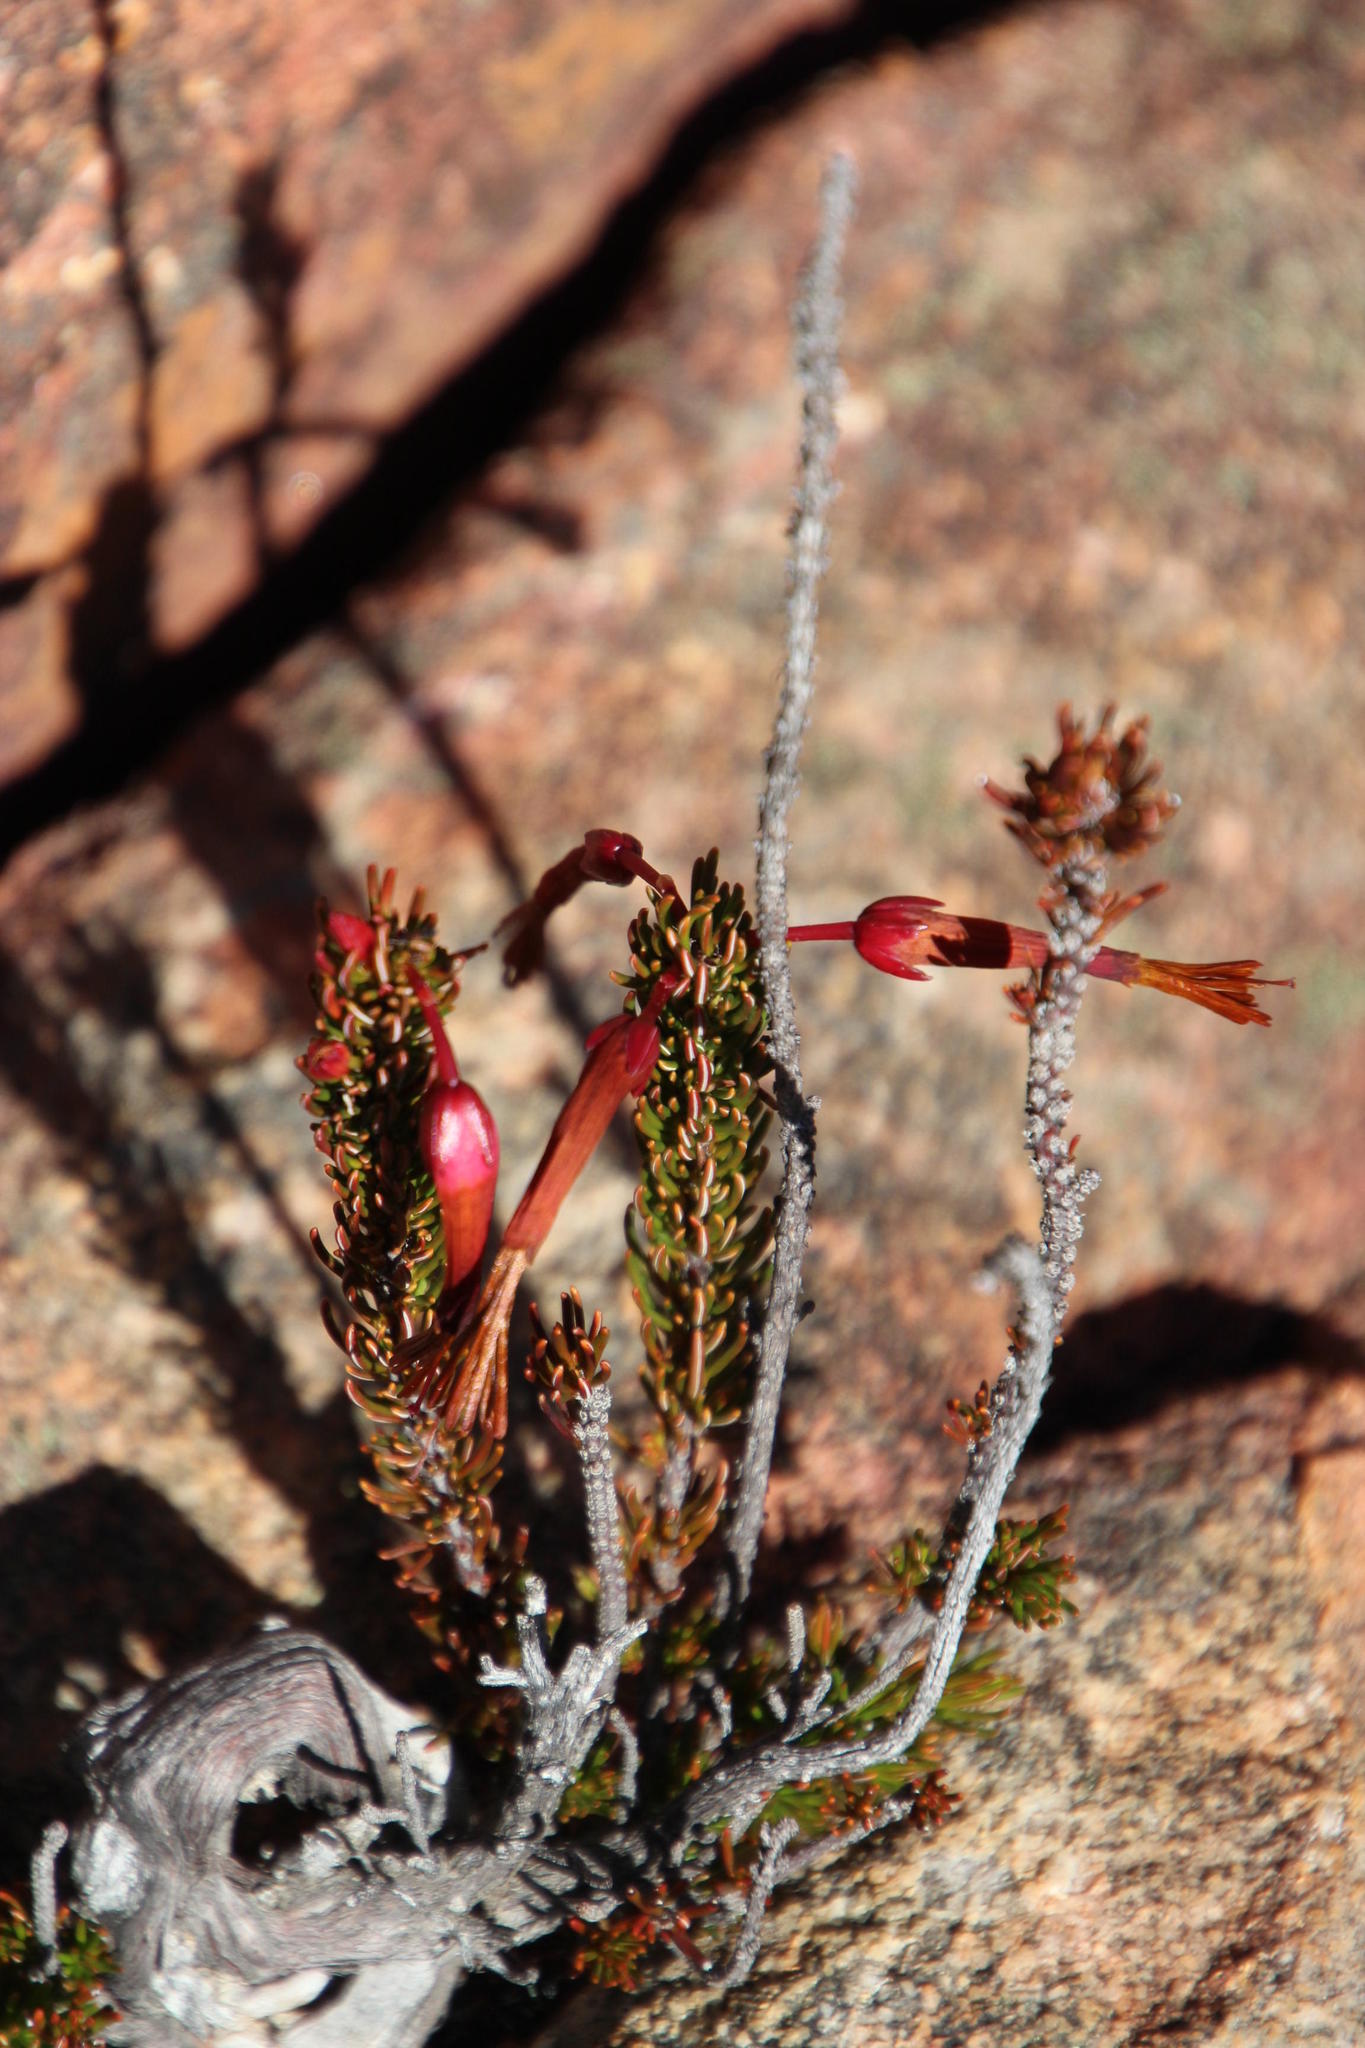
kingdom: Plantae
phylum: Tracheophyta
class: Magnoliopsida
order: Ericales
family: Ericaceae
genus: Erica
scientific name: Erica plukenetii
